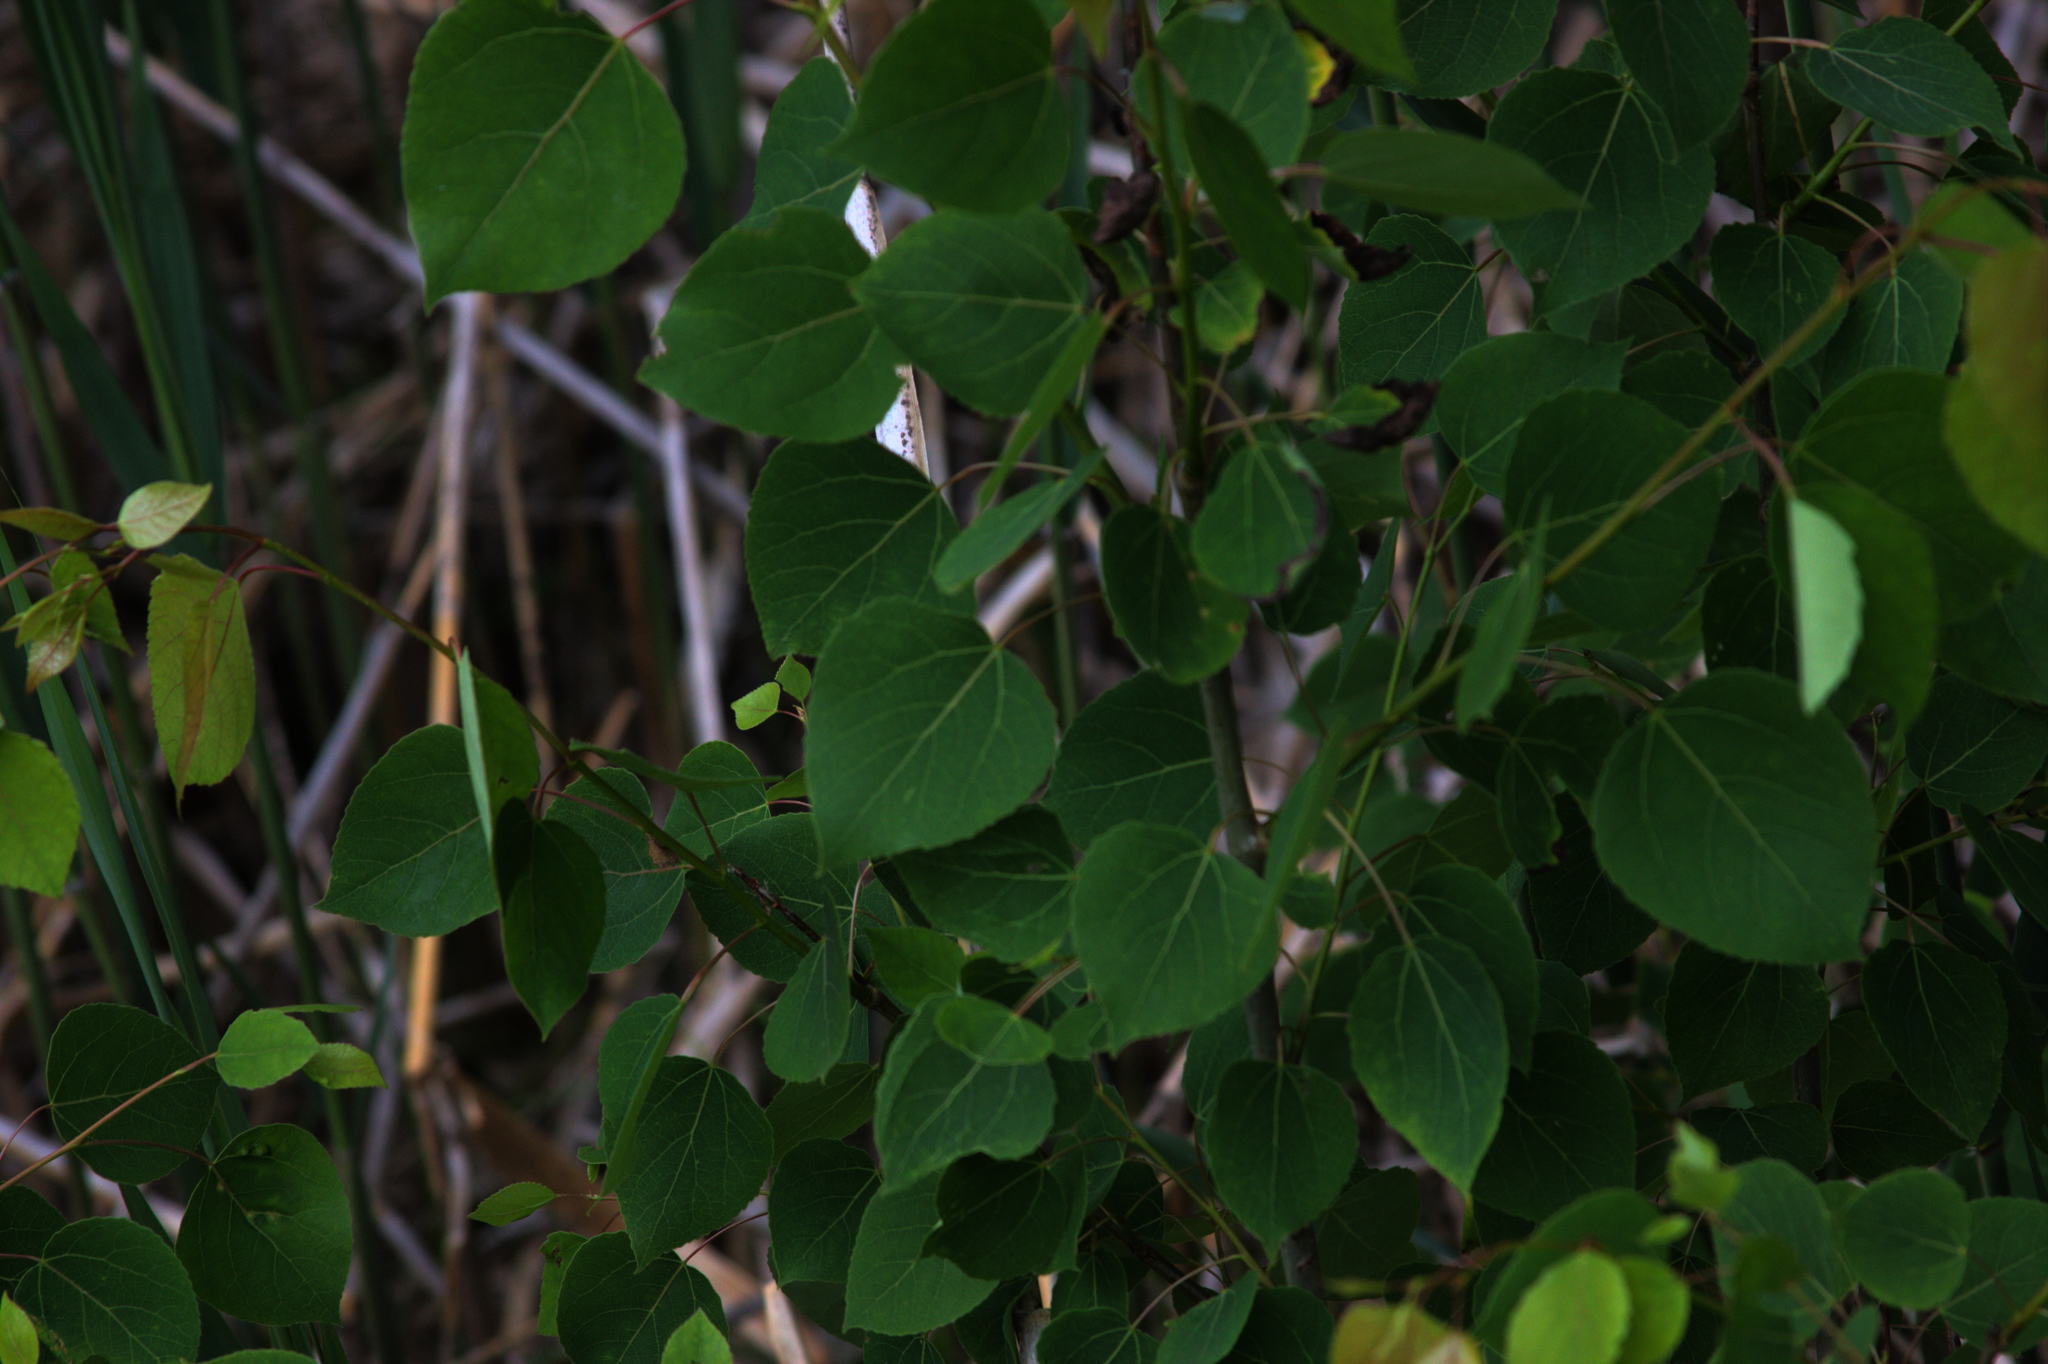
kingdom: Plantae
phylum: Tracheophyta
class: Magnoliopsida
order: Malpighiales
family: Salicaceae
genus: Populus
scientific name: Populus tremuloides
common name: Quaking aspen
